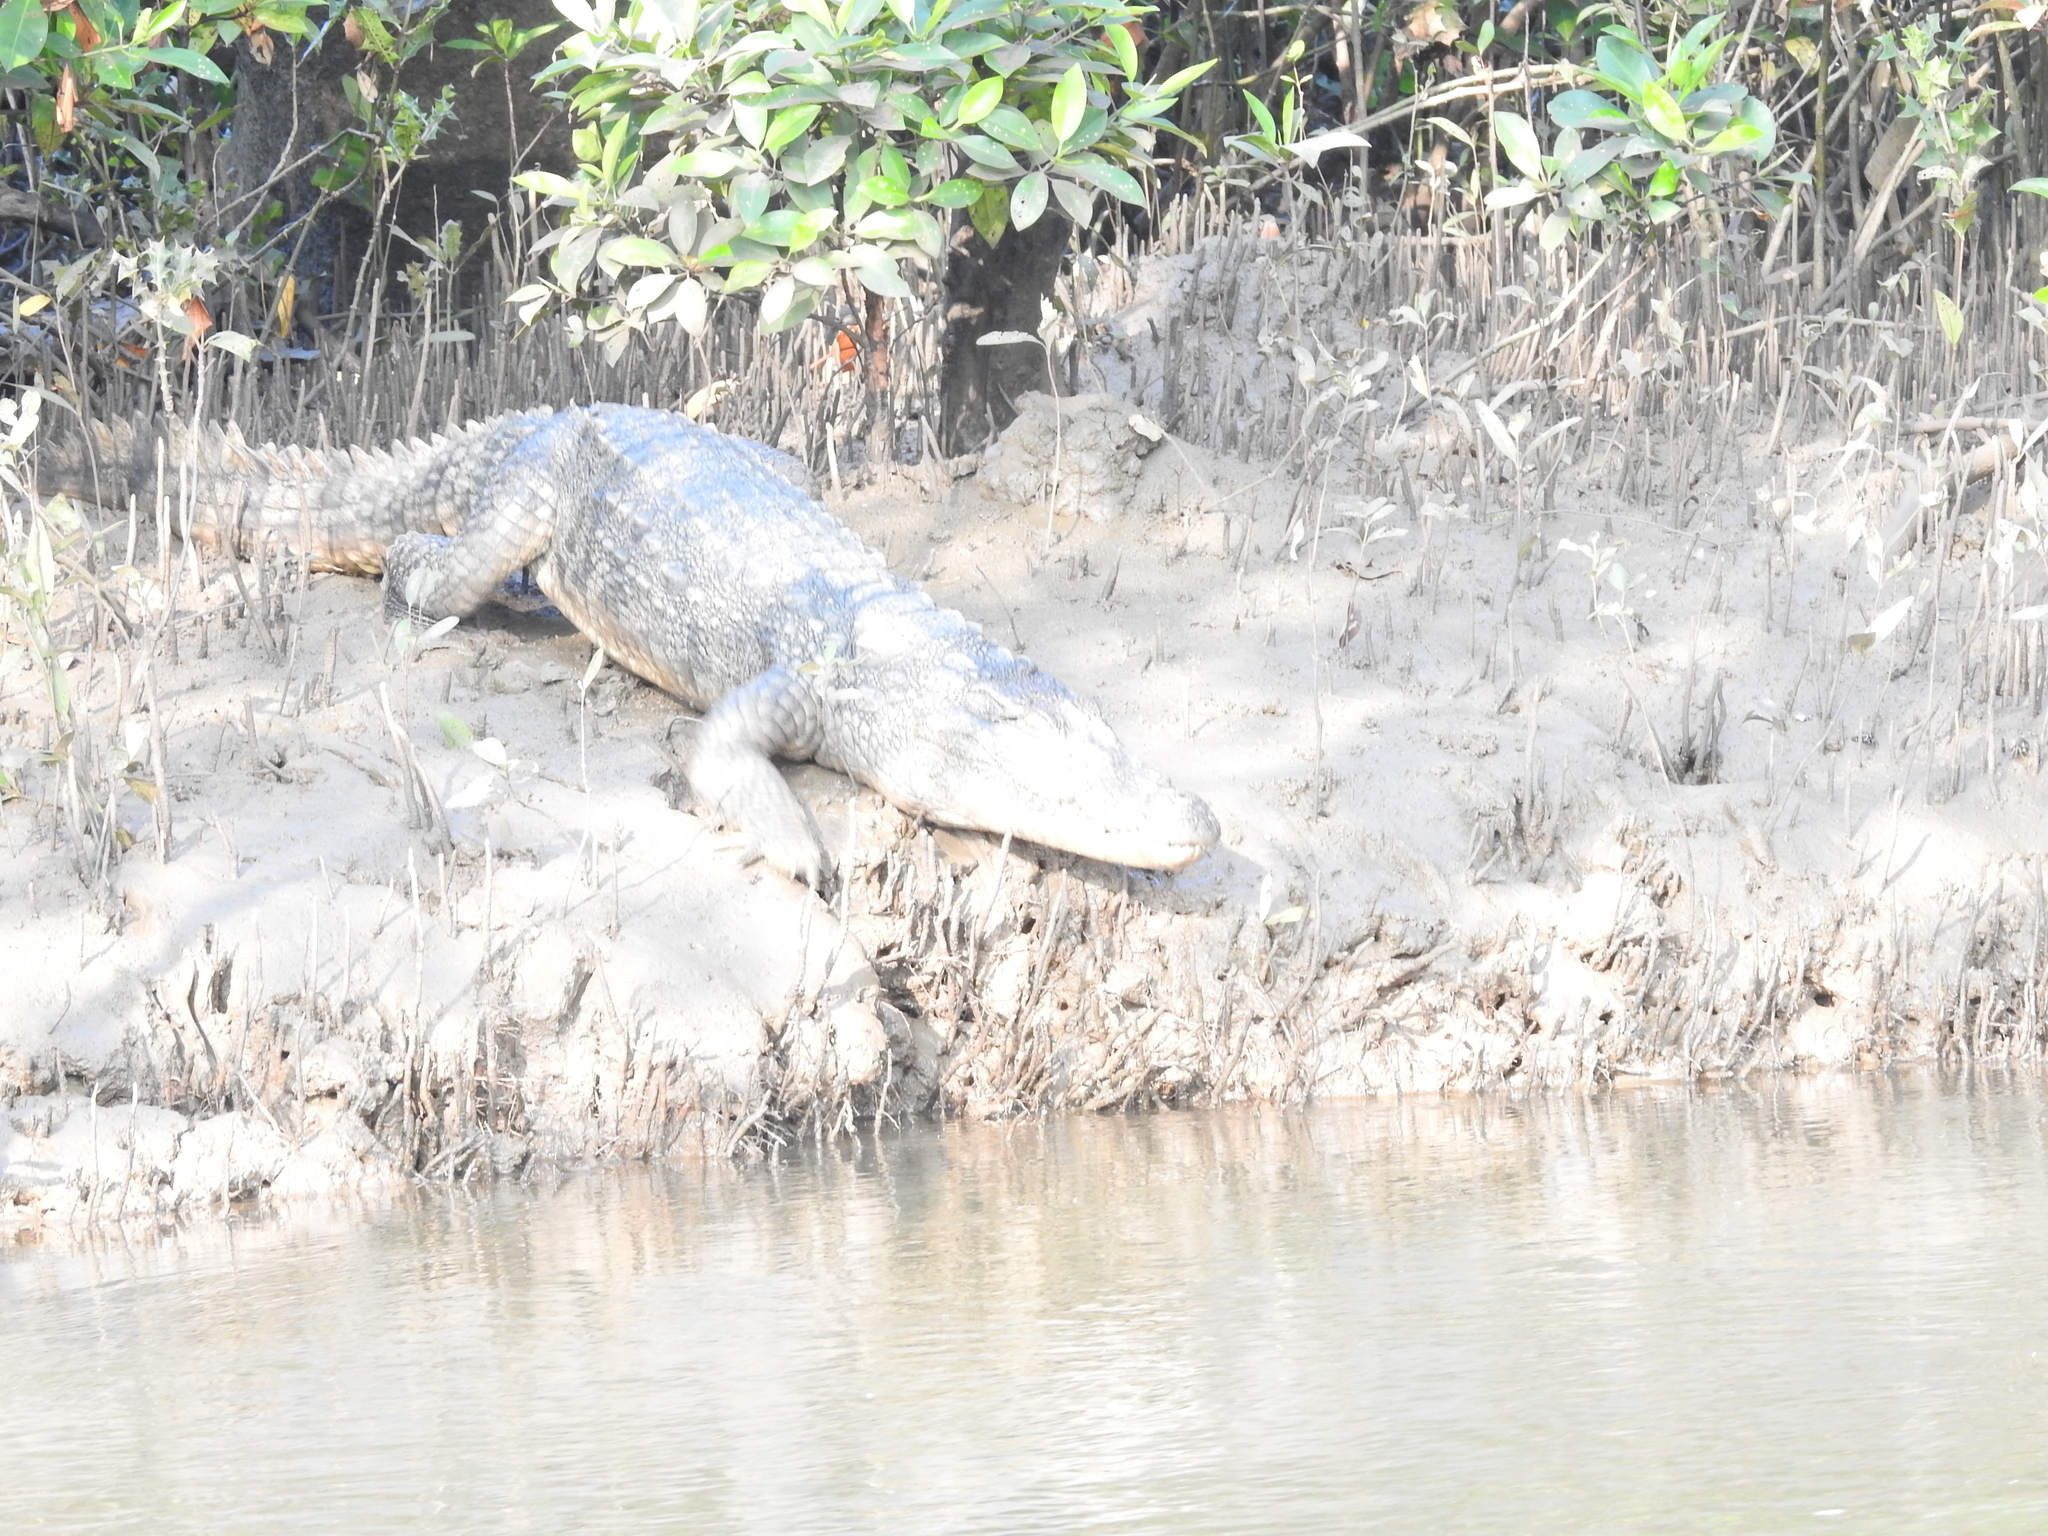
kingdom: Animalia
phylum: Chordata
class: Crocodylia
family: Crocodylidae
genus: Crocodylus
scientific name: Crocodylus palustris
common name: Mugger crocodile
